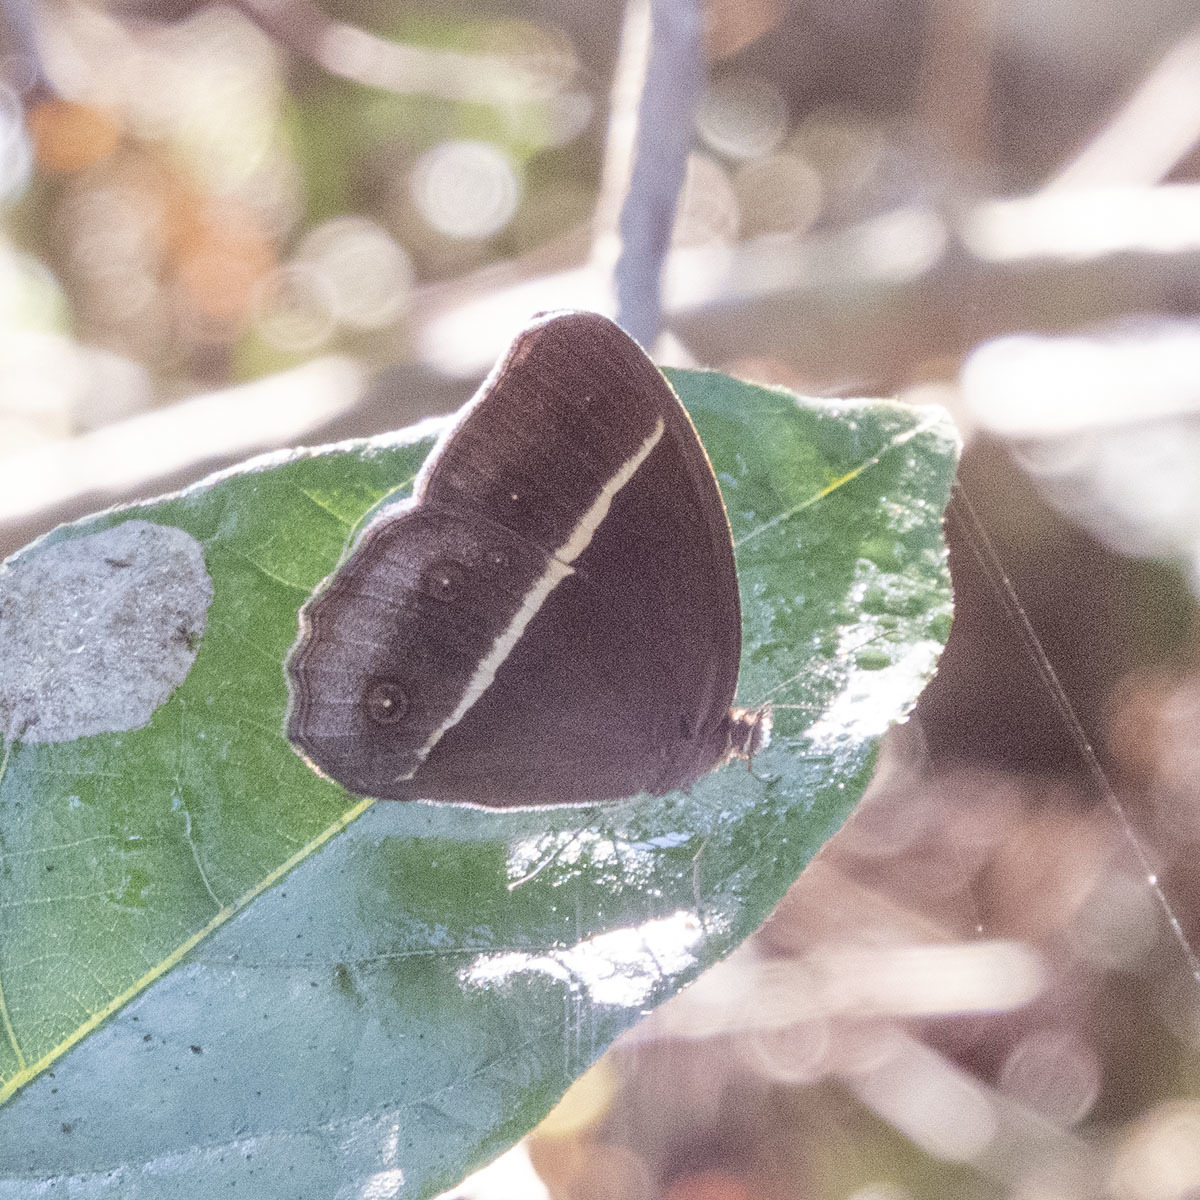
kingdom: Animalia
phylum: Arthropoda
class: Insecta
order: Lepidoptera
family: Nymphalidae
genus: Orsotriaena
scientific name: Orsotriaena medus
